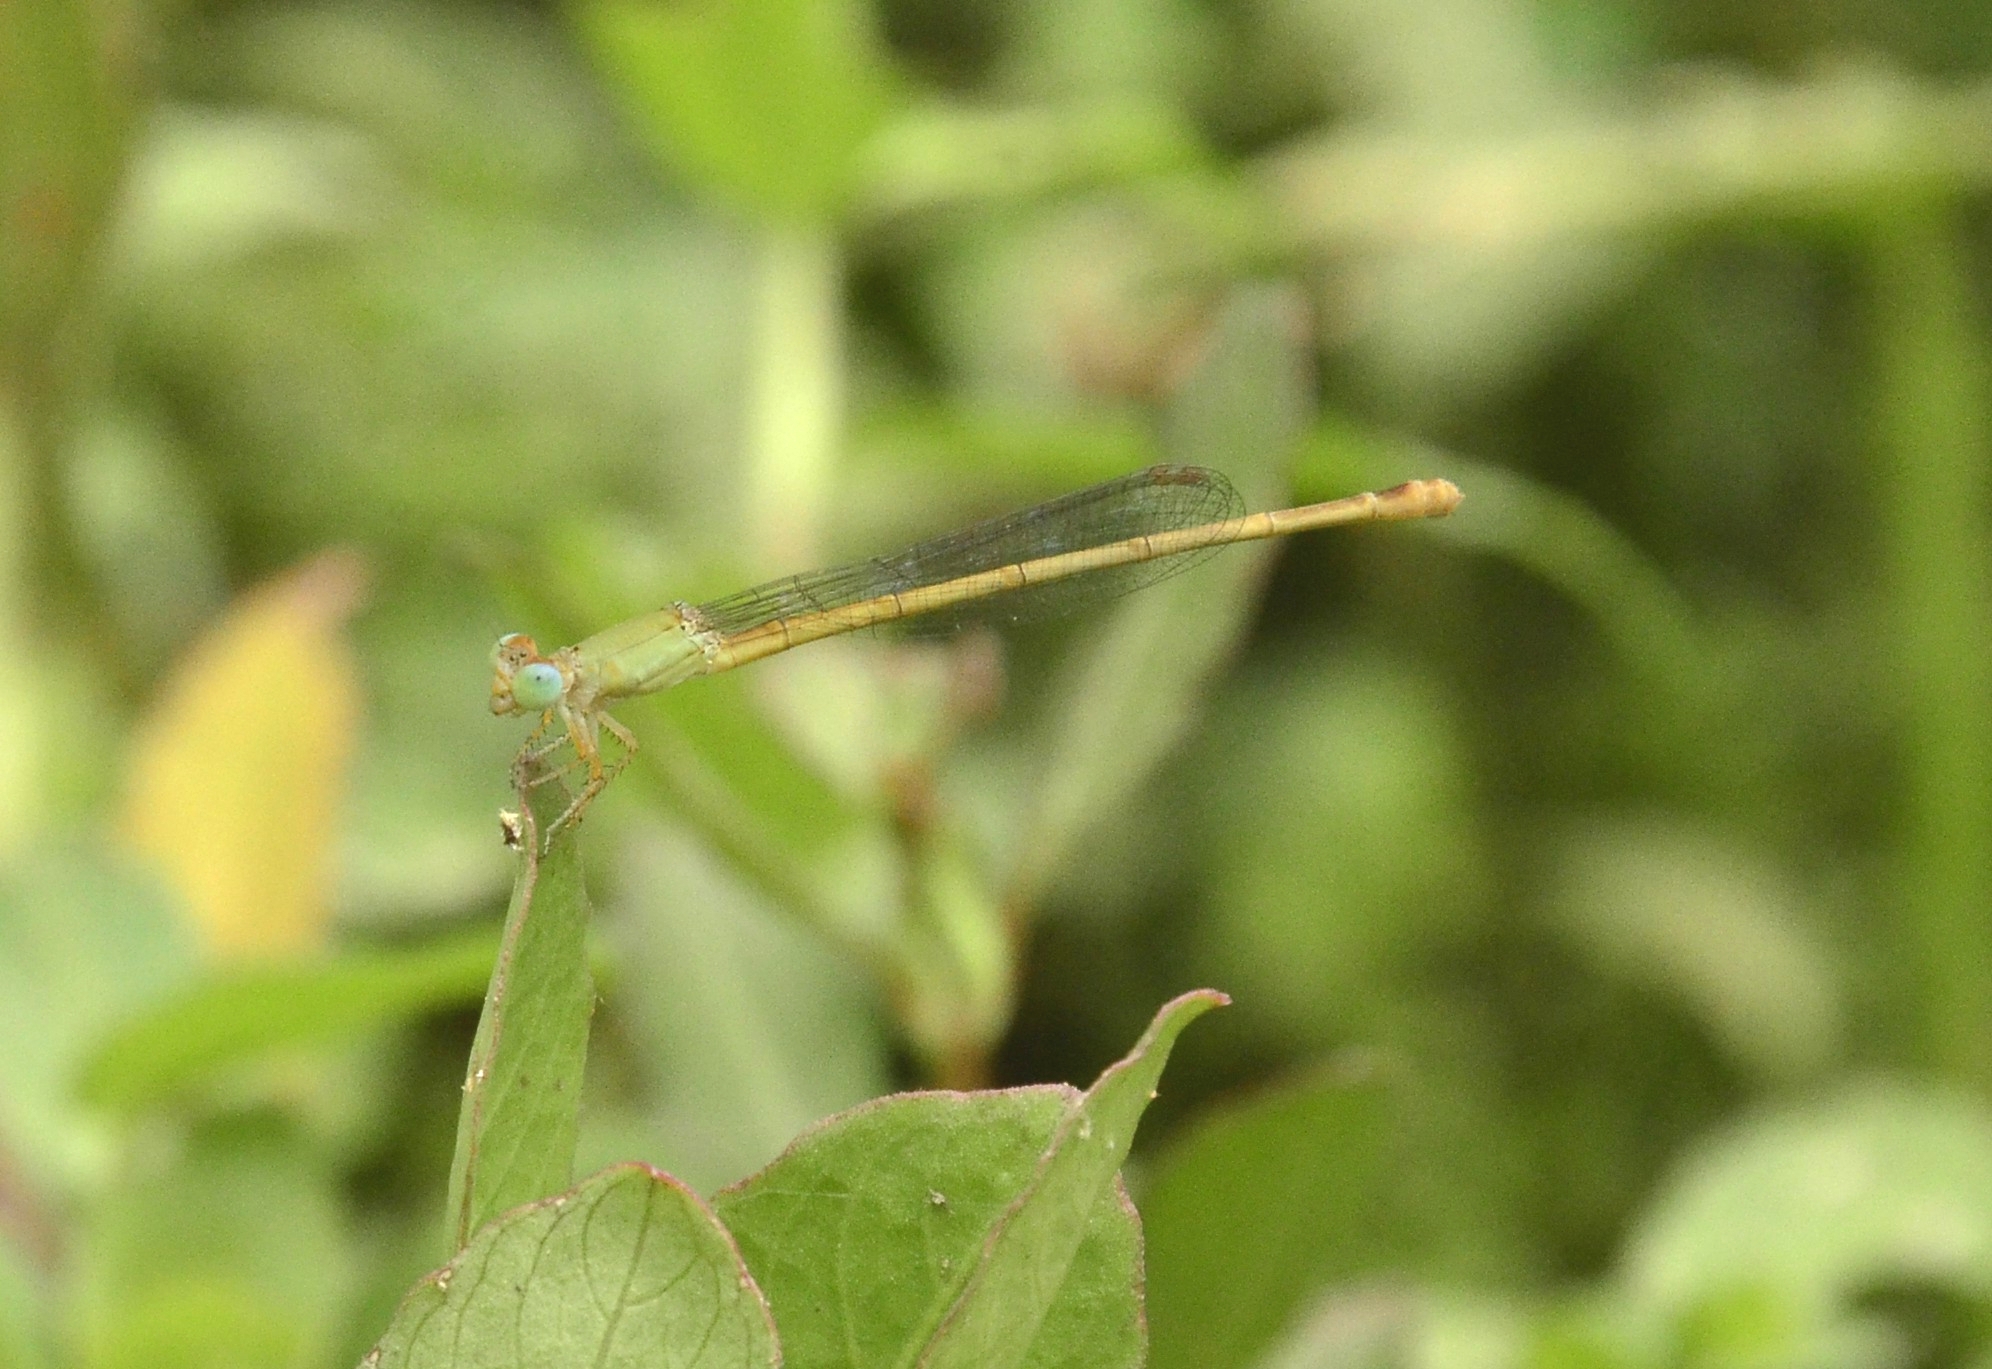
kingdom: Animalia
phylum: Arthropoda
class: Insecta
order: Odonata
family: Coenagrionidae
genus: Ceriagrion
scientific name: Ceriagrion coromandelianum
